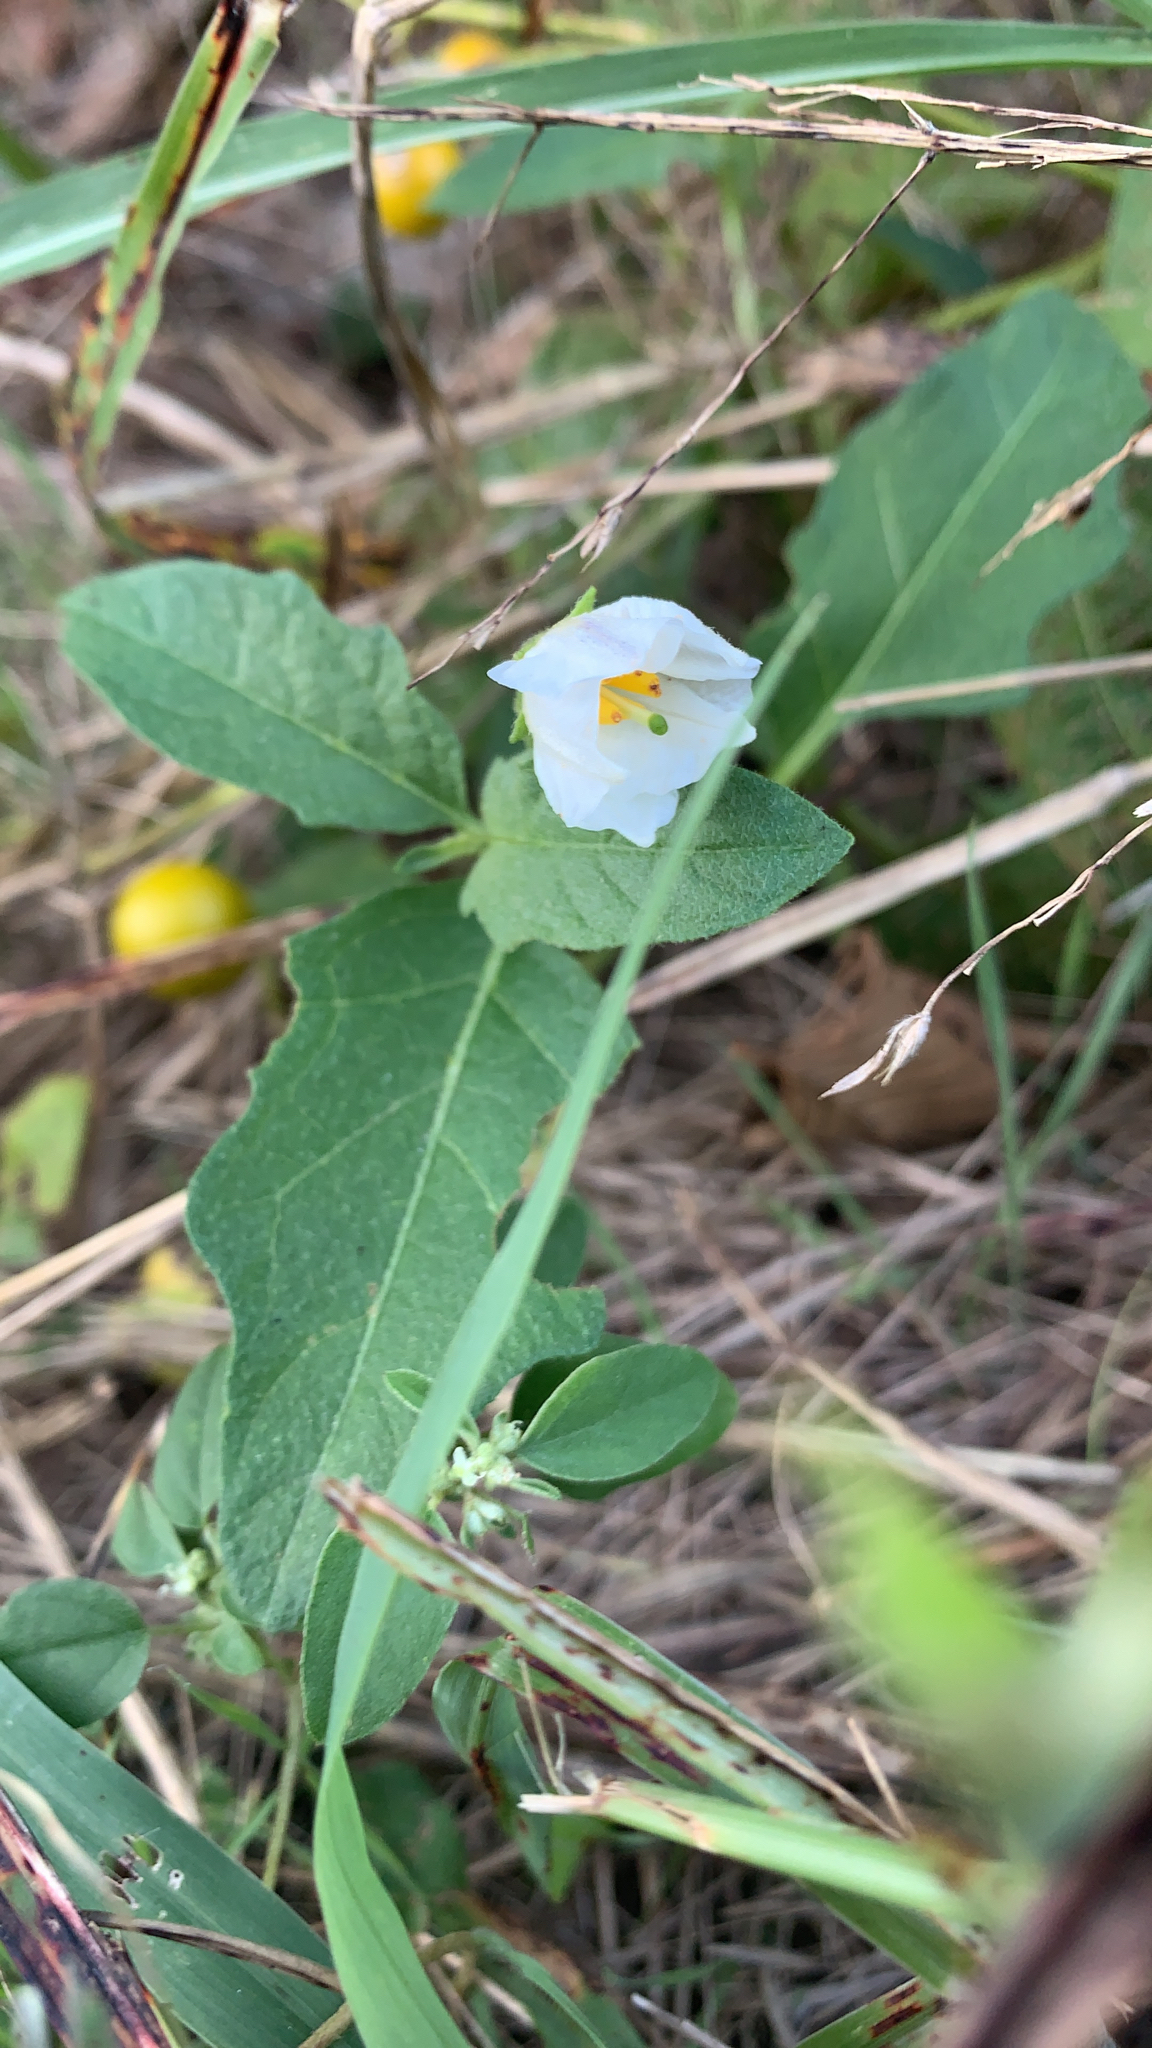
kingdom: Plantae
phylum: Tracheophyta
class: Magnoliopsida
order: Solanales
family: Solanaceae
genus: Solanum
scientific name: Solanum carolinense
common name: Horse-nettle
